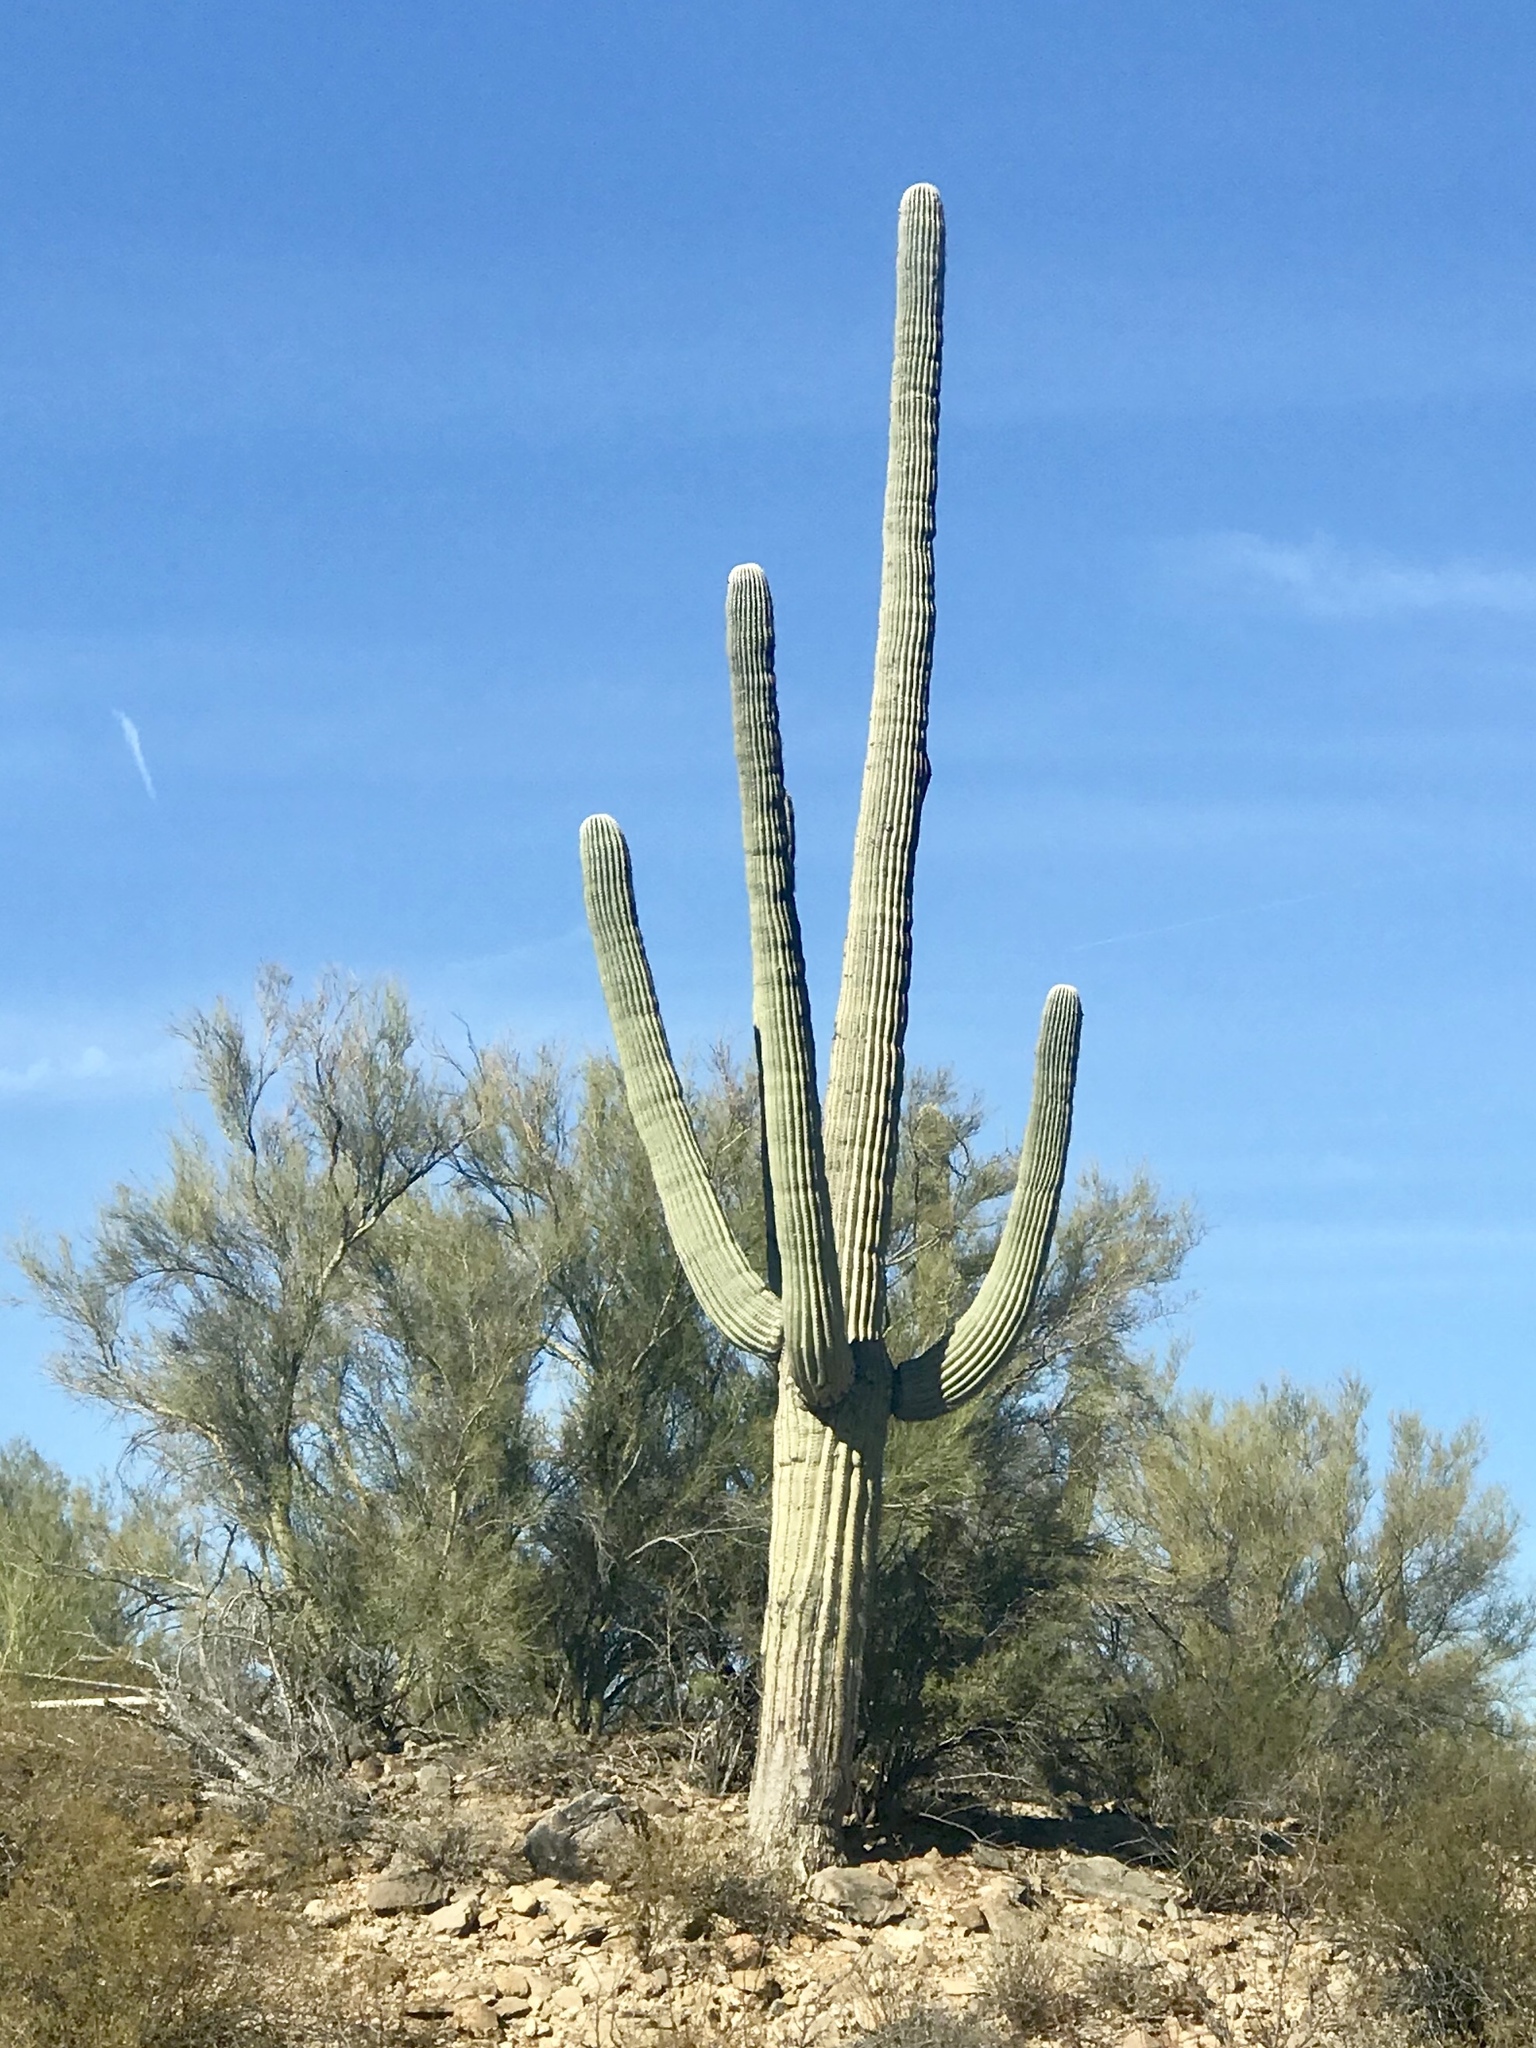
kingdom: Plantae
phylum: Tracheophyta
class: Magnoliopsida
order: Caryophyllales
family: Cactaceae
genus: Carnegiea
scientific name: Carnegiea gigantea
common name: Saguaro
